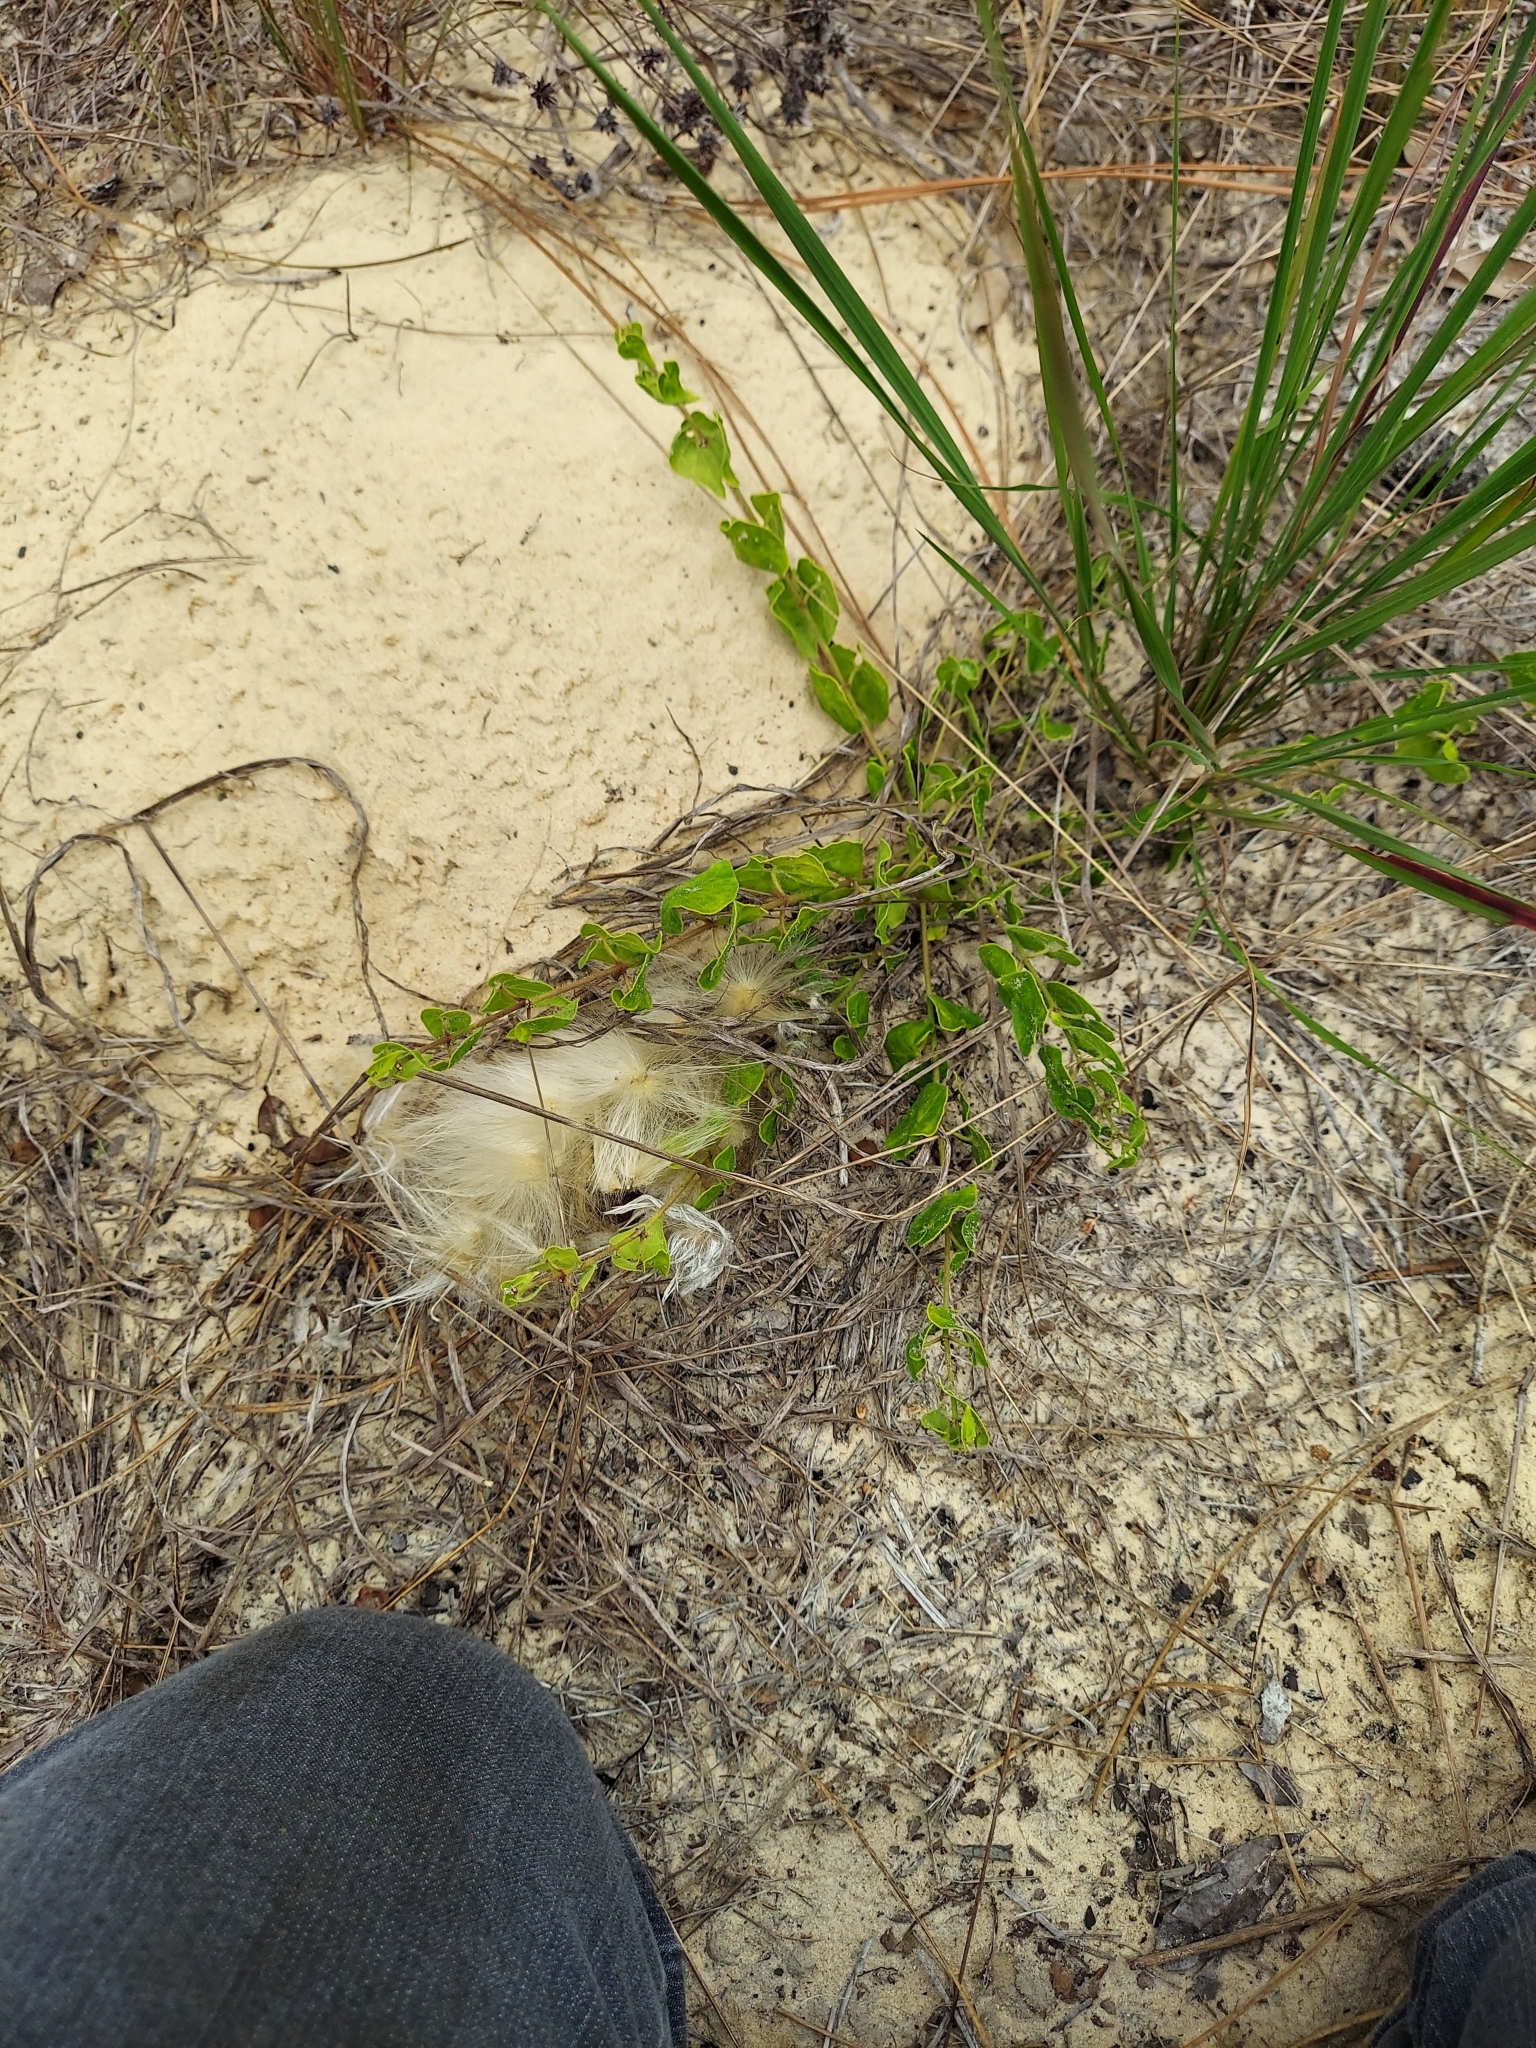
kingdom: Plantae
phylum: Tracheophyta
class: Magnoliopsida
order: Gentianales
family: Apocynaceae
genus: Chthamalia
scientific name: Chthamalia pubiflora
